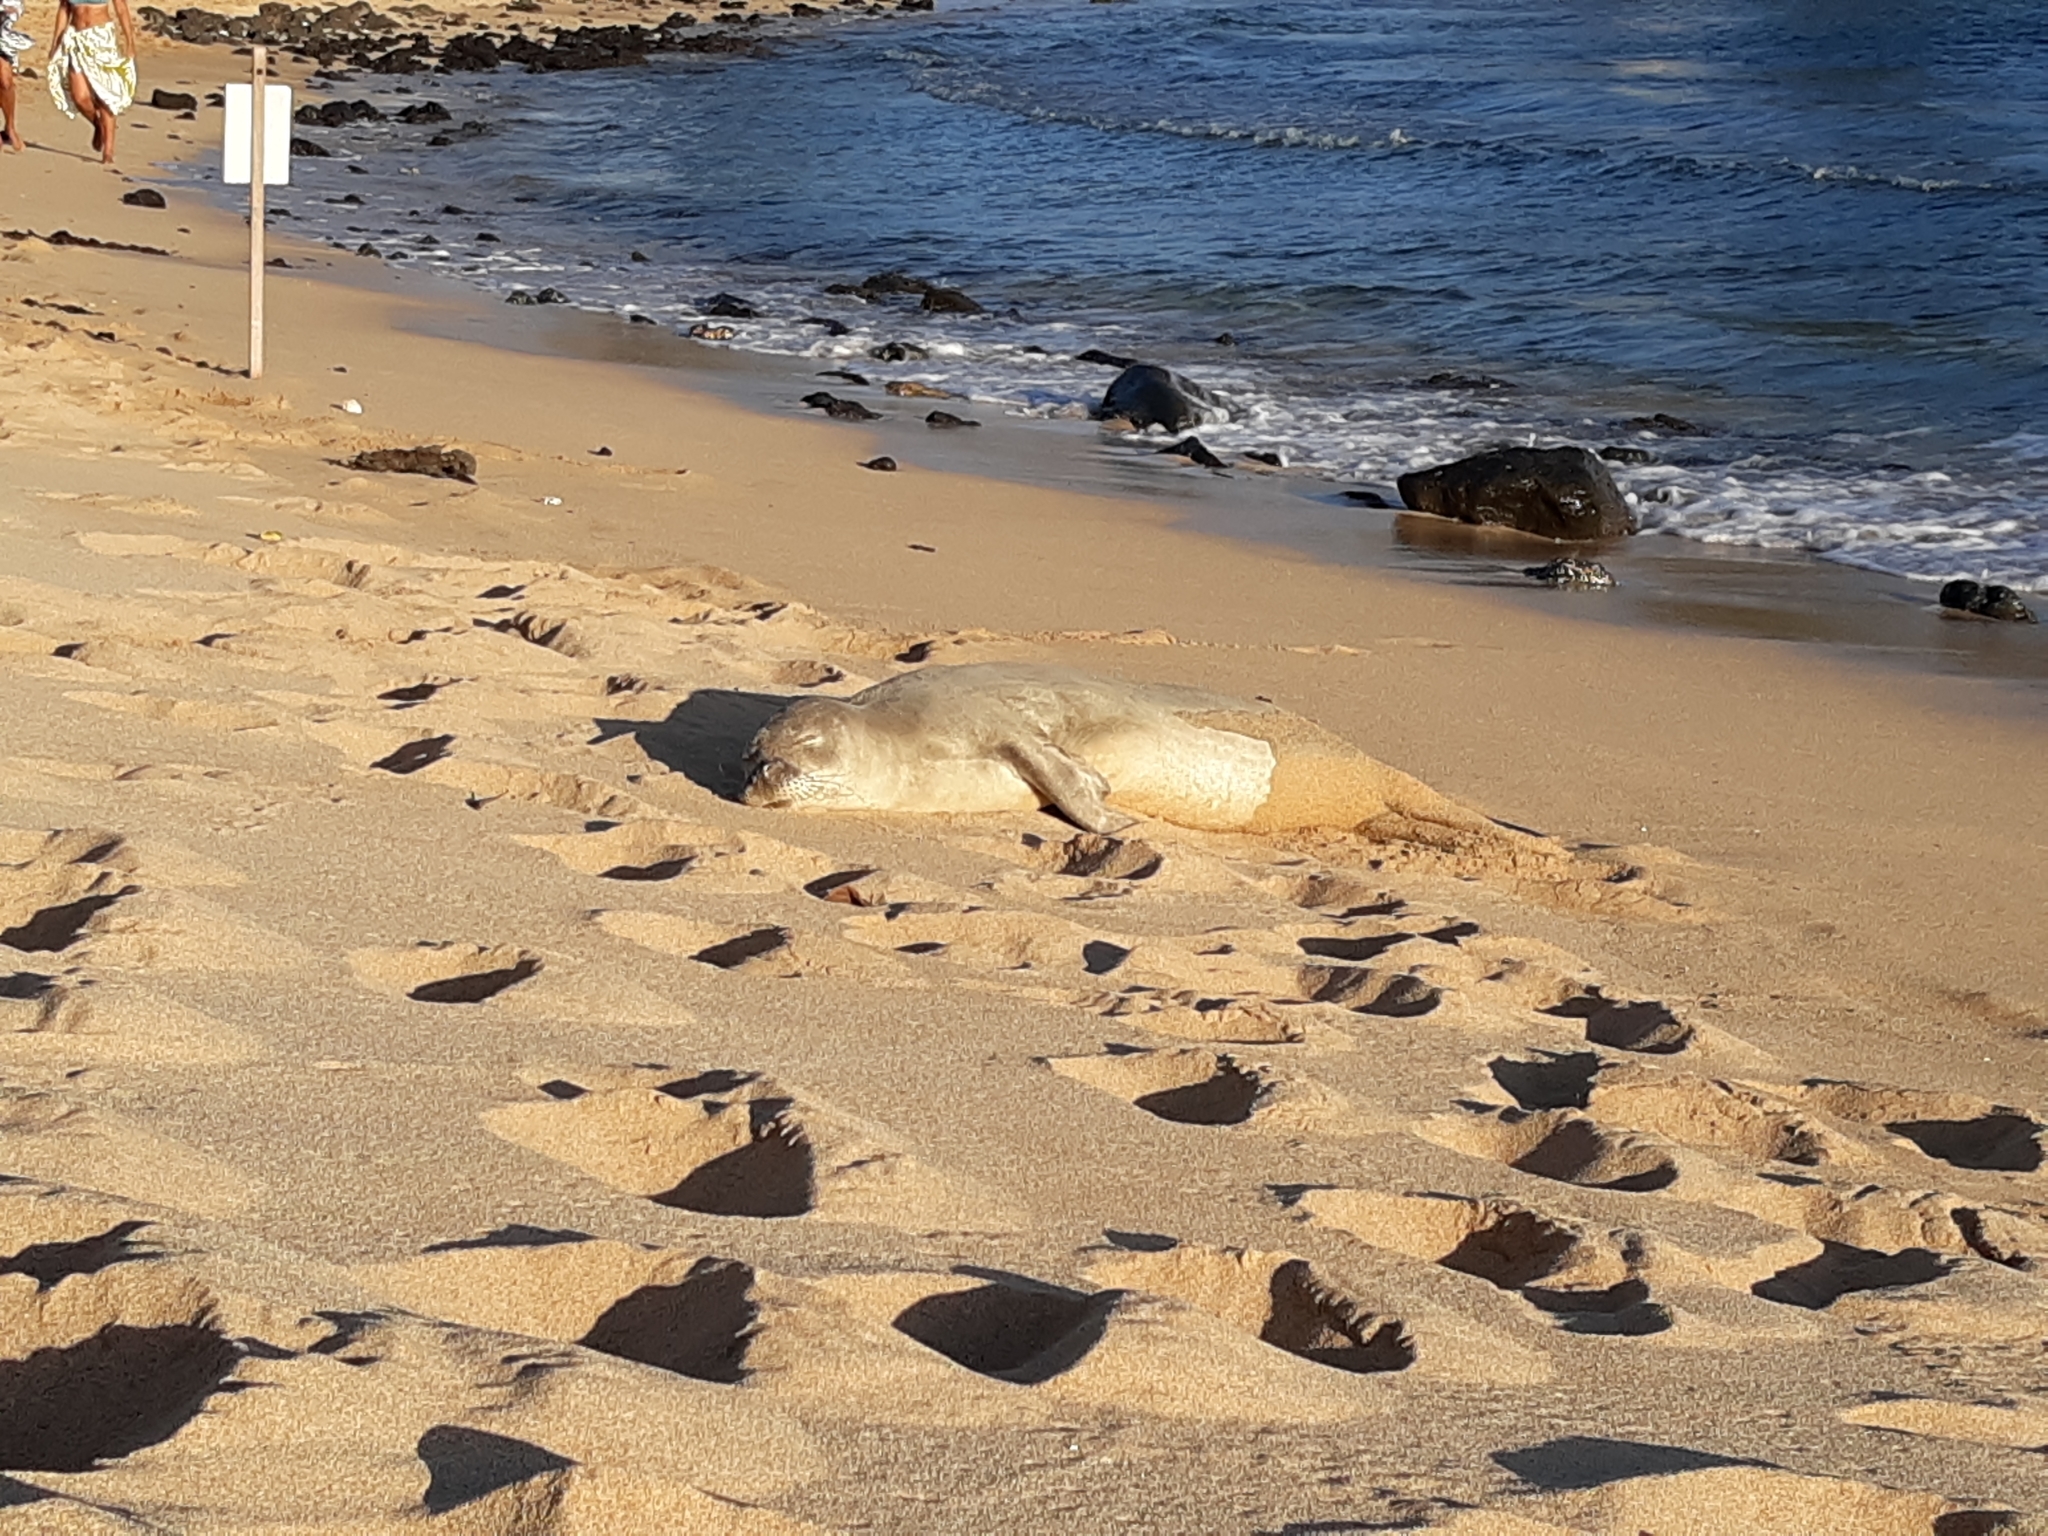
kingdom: Animalia
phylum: Chordata
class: Mammalia
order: Carnivora
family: Phocidae
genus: Neomonachus
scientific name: Neomonachus schauinslandi
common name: Hawaiian monk seal
